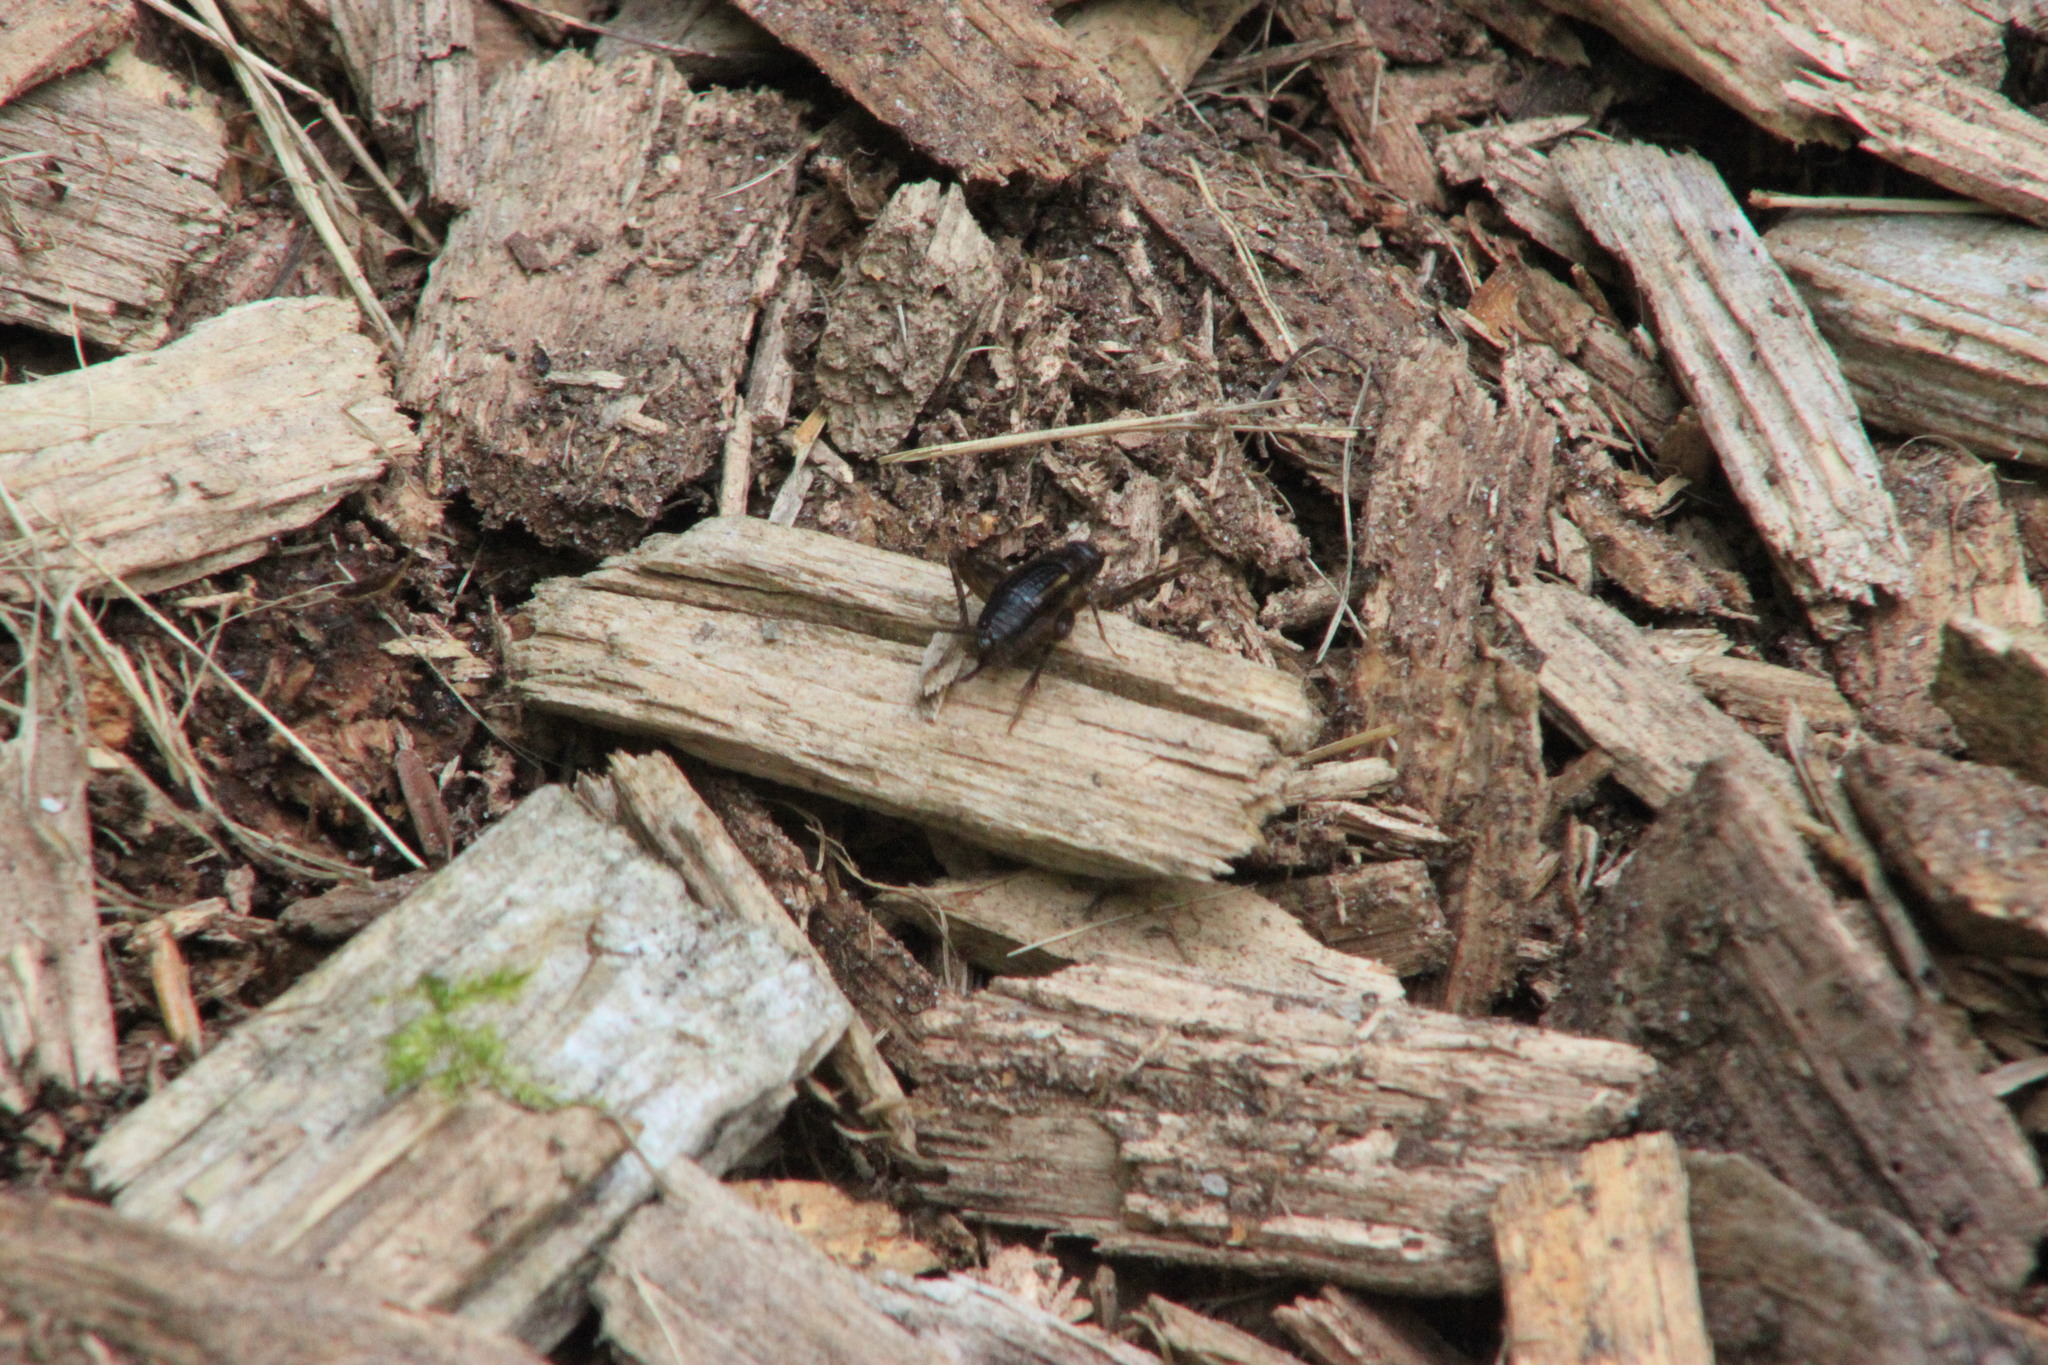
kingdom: Animalia
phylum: Arthropoda
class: Insecta
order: Orthoptera
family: Trigonidiidae
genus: Eunemobius
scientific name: Eunemobius carolinus
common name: Carolina ground cricket
